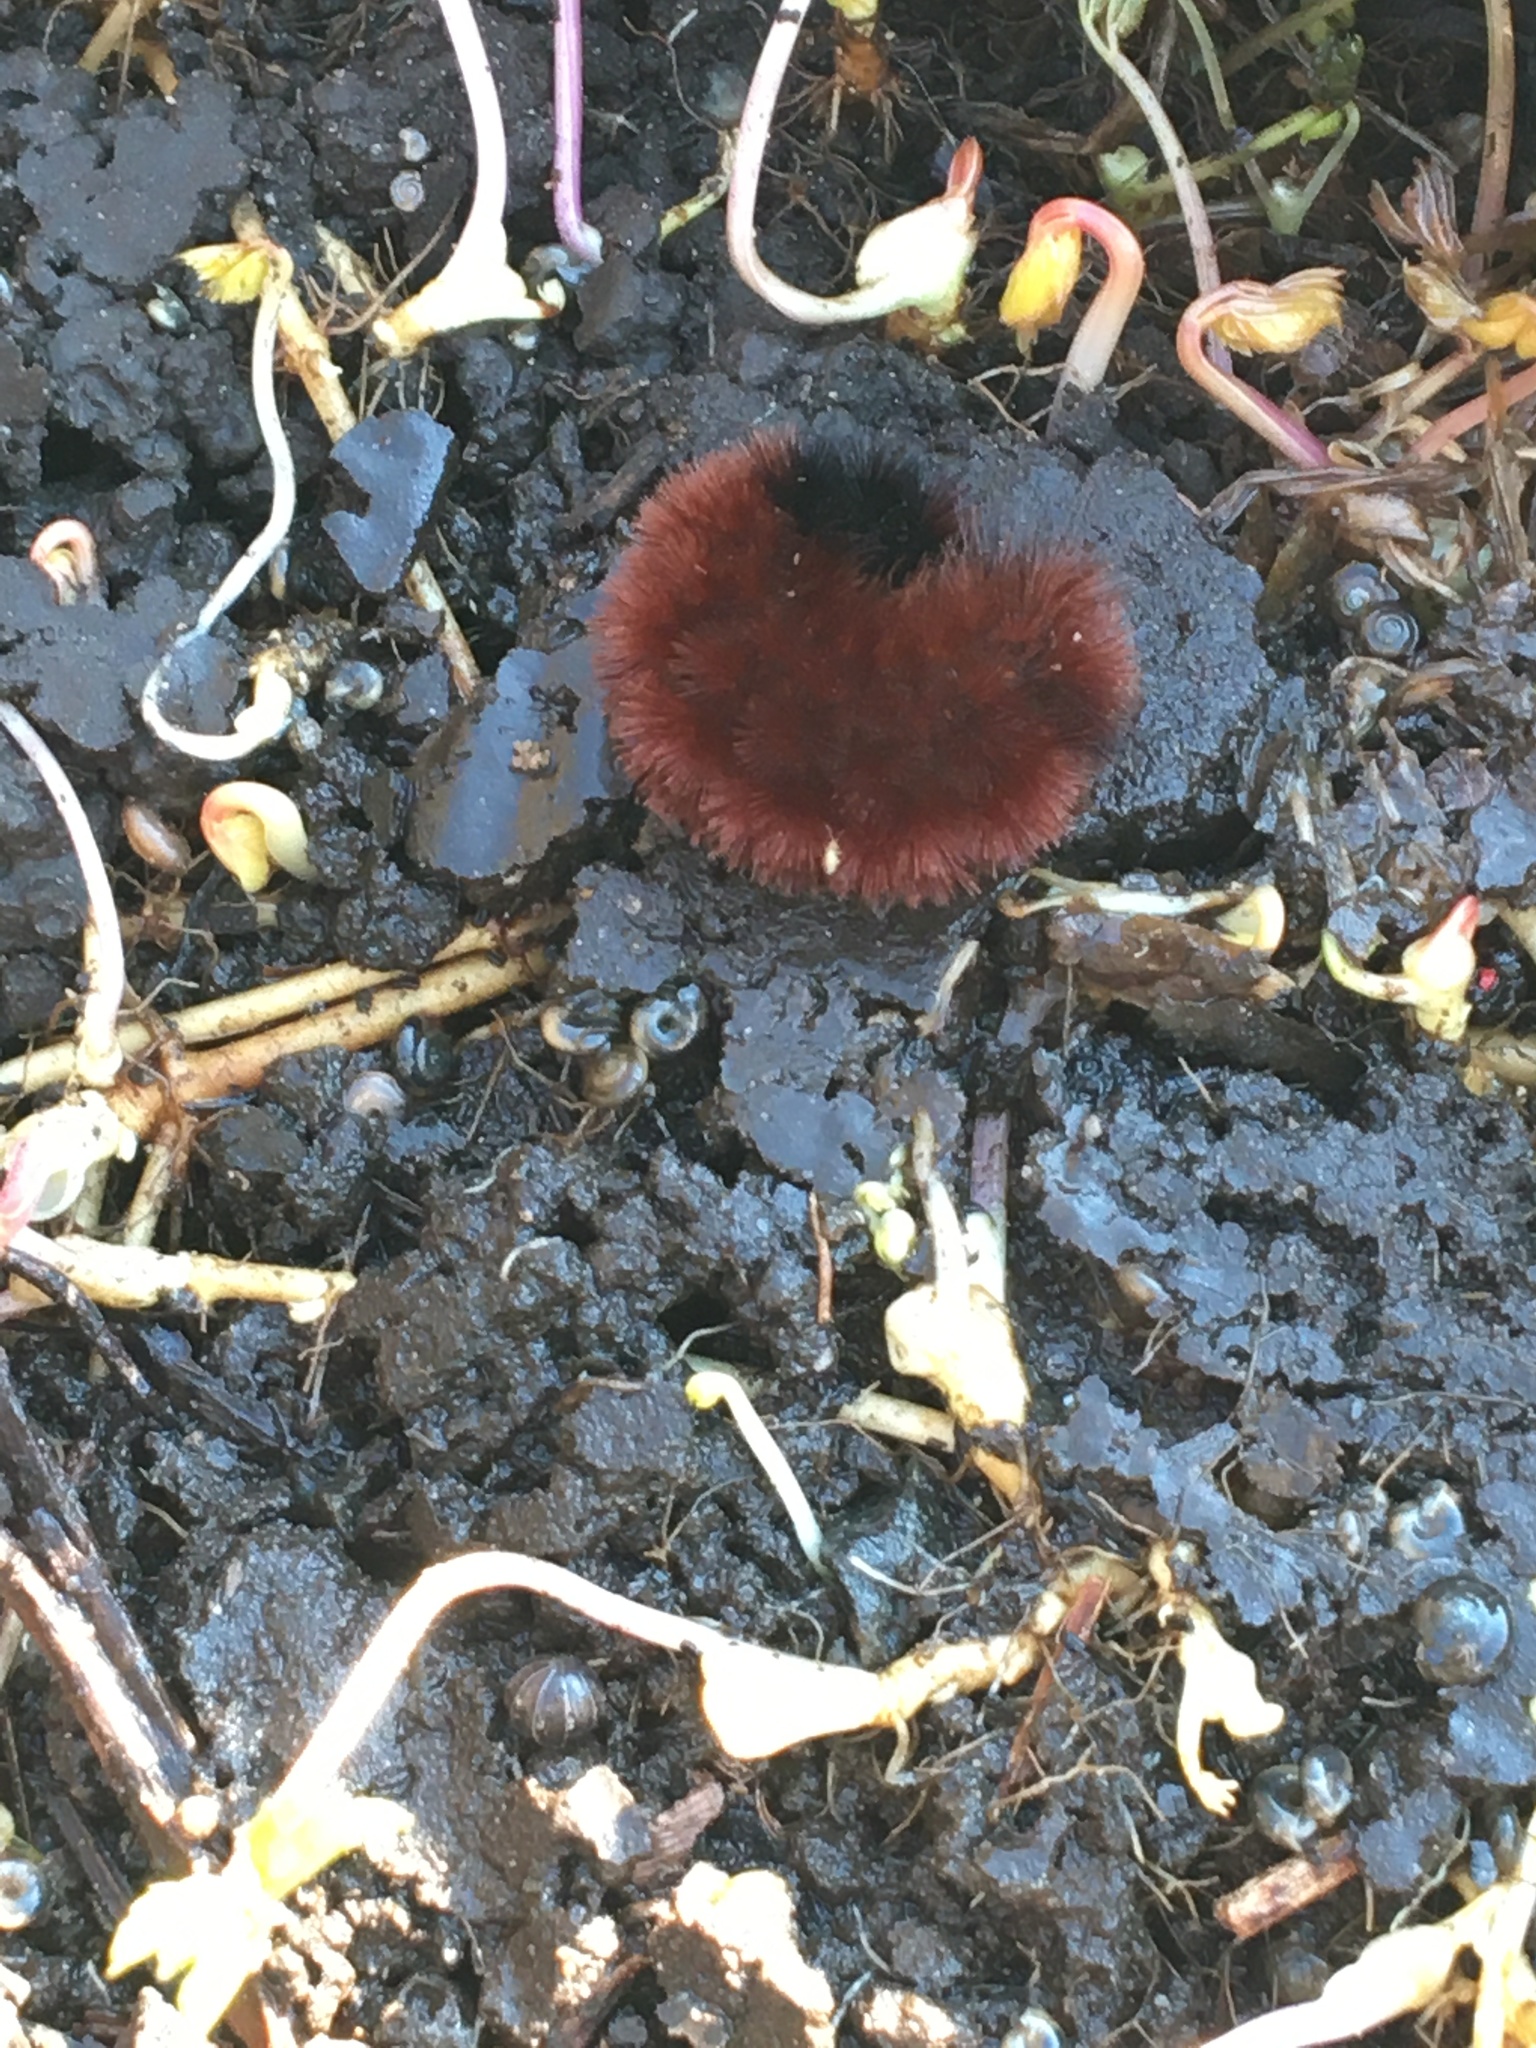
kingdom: Animalia
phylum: Arthropoda
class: Insecta
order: Lepidoptera
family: Erebidae
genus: Pyrrharctia
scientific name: Pyrrharctia isabella
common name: Isabella tiger moth
